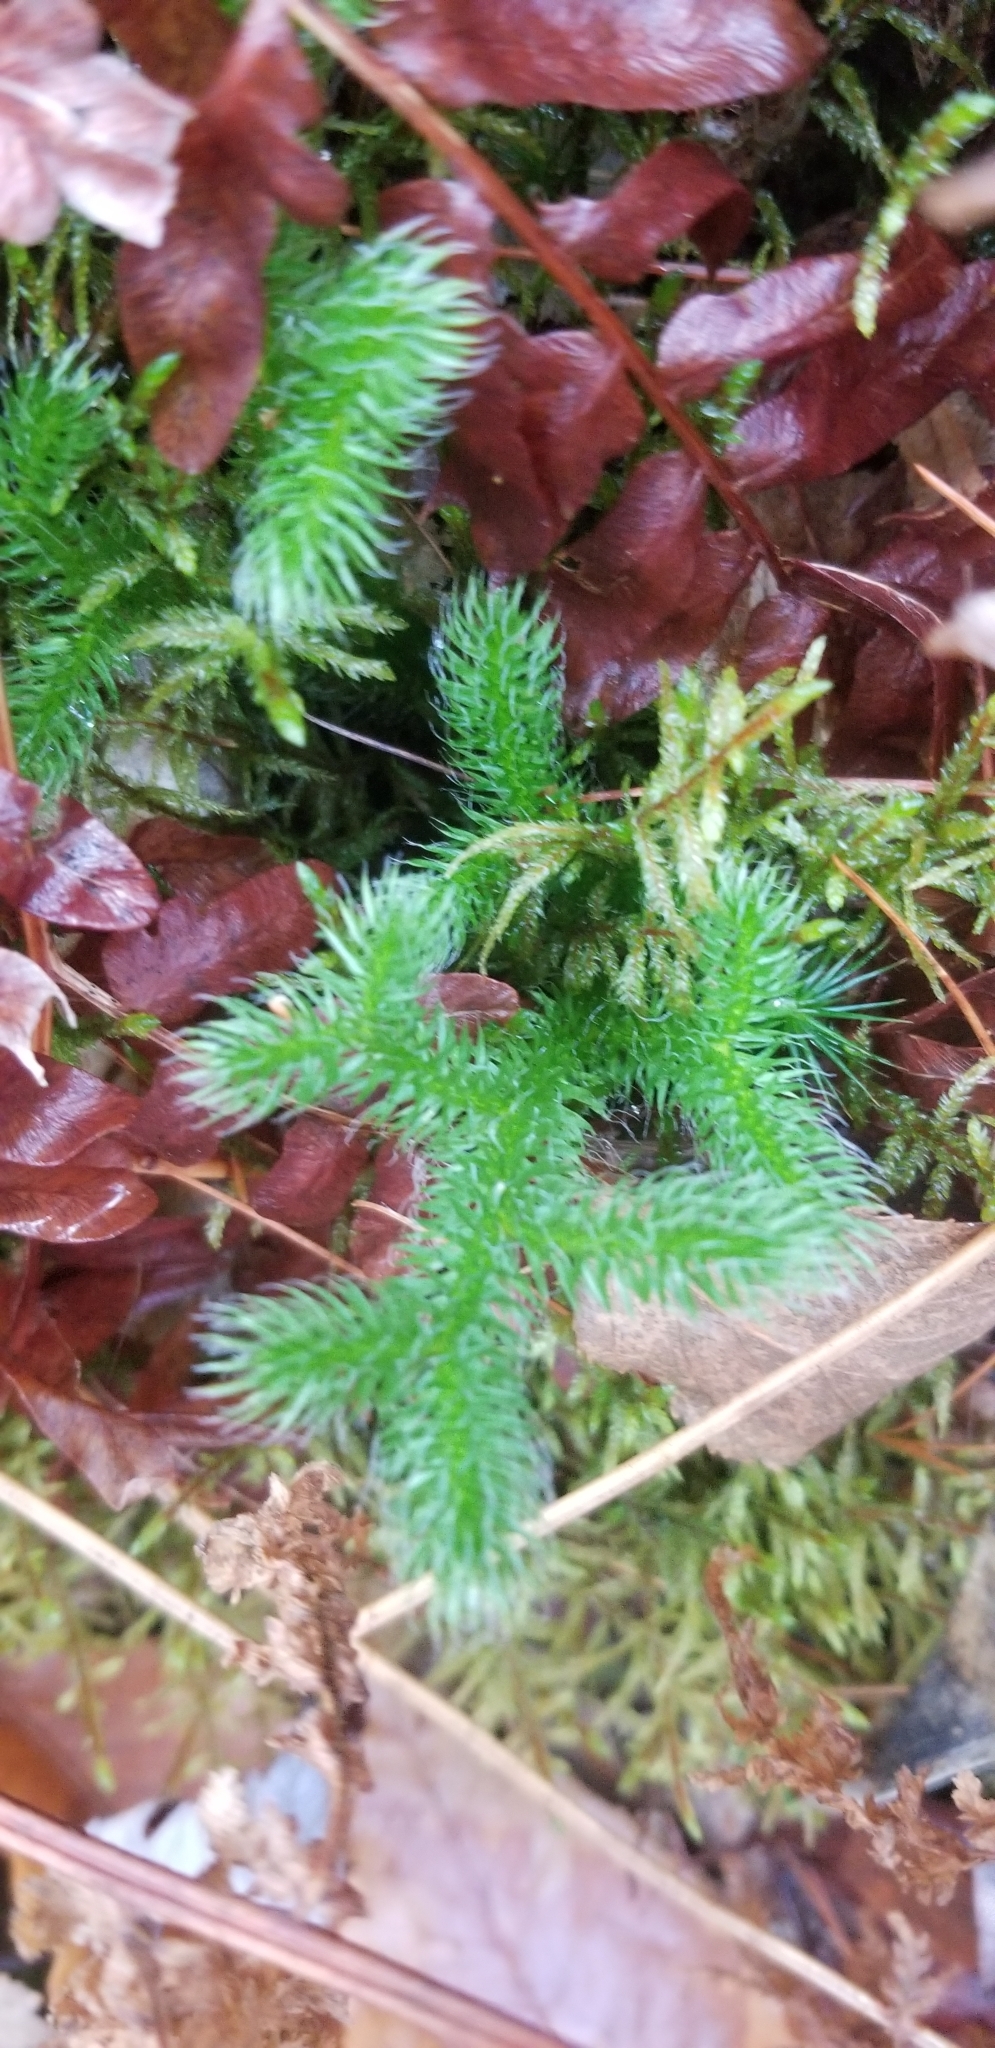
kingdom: Plantae
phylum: Tracheophyta
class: Lycopodiopsida
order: Lycopodiales
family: Lycopodiaceae
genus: Lycopodium
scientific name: Lycopodium clavatum
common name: Stag's-horn clubmoss
